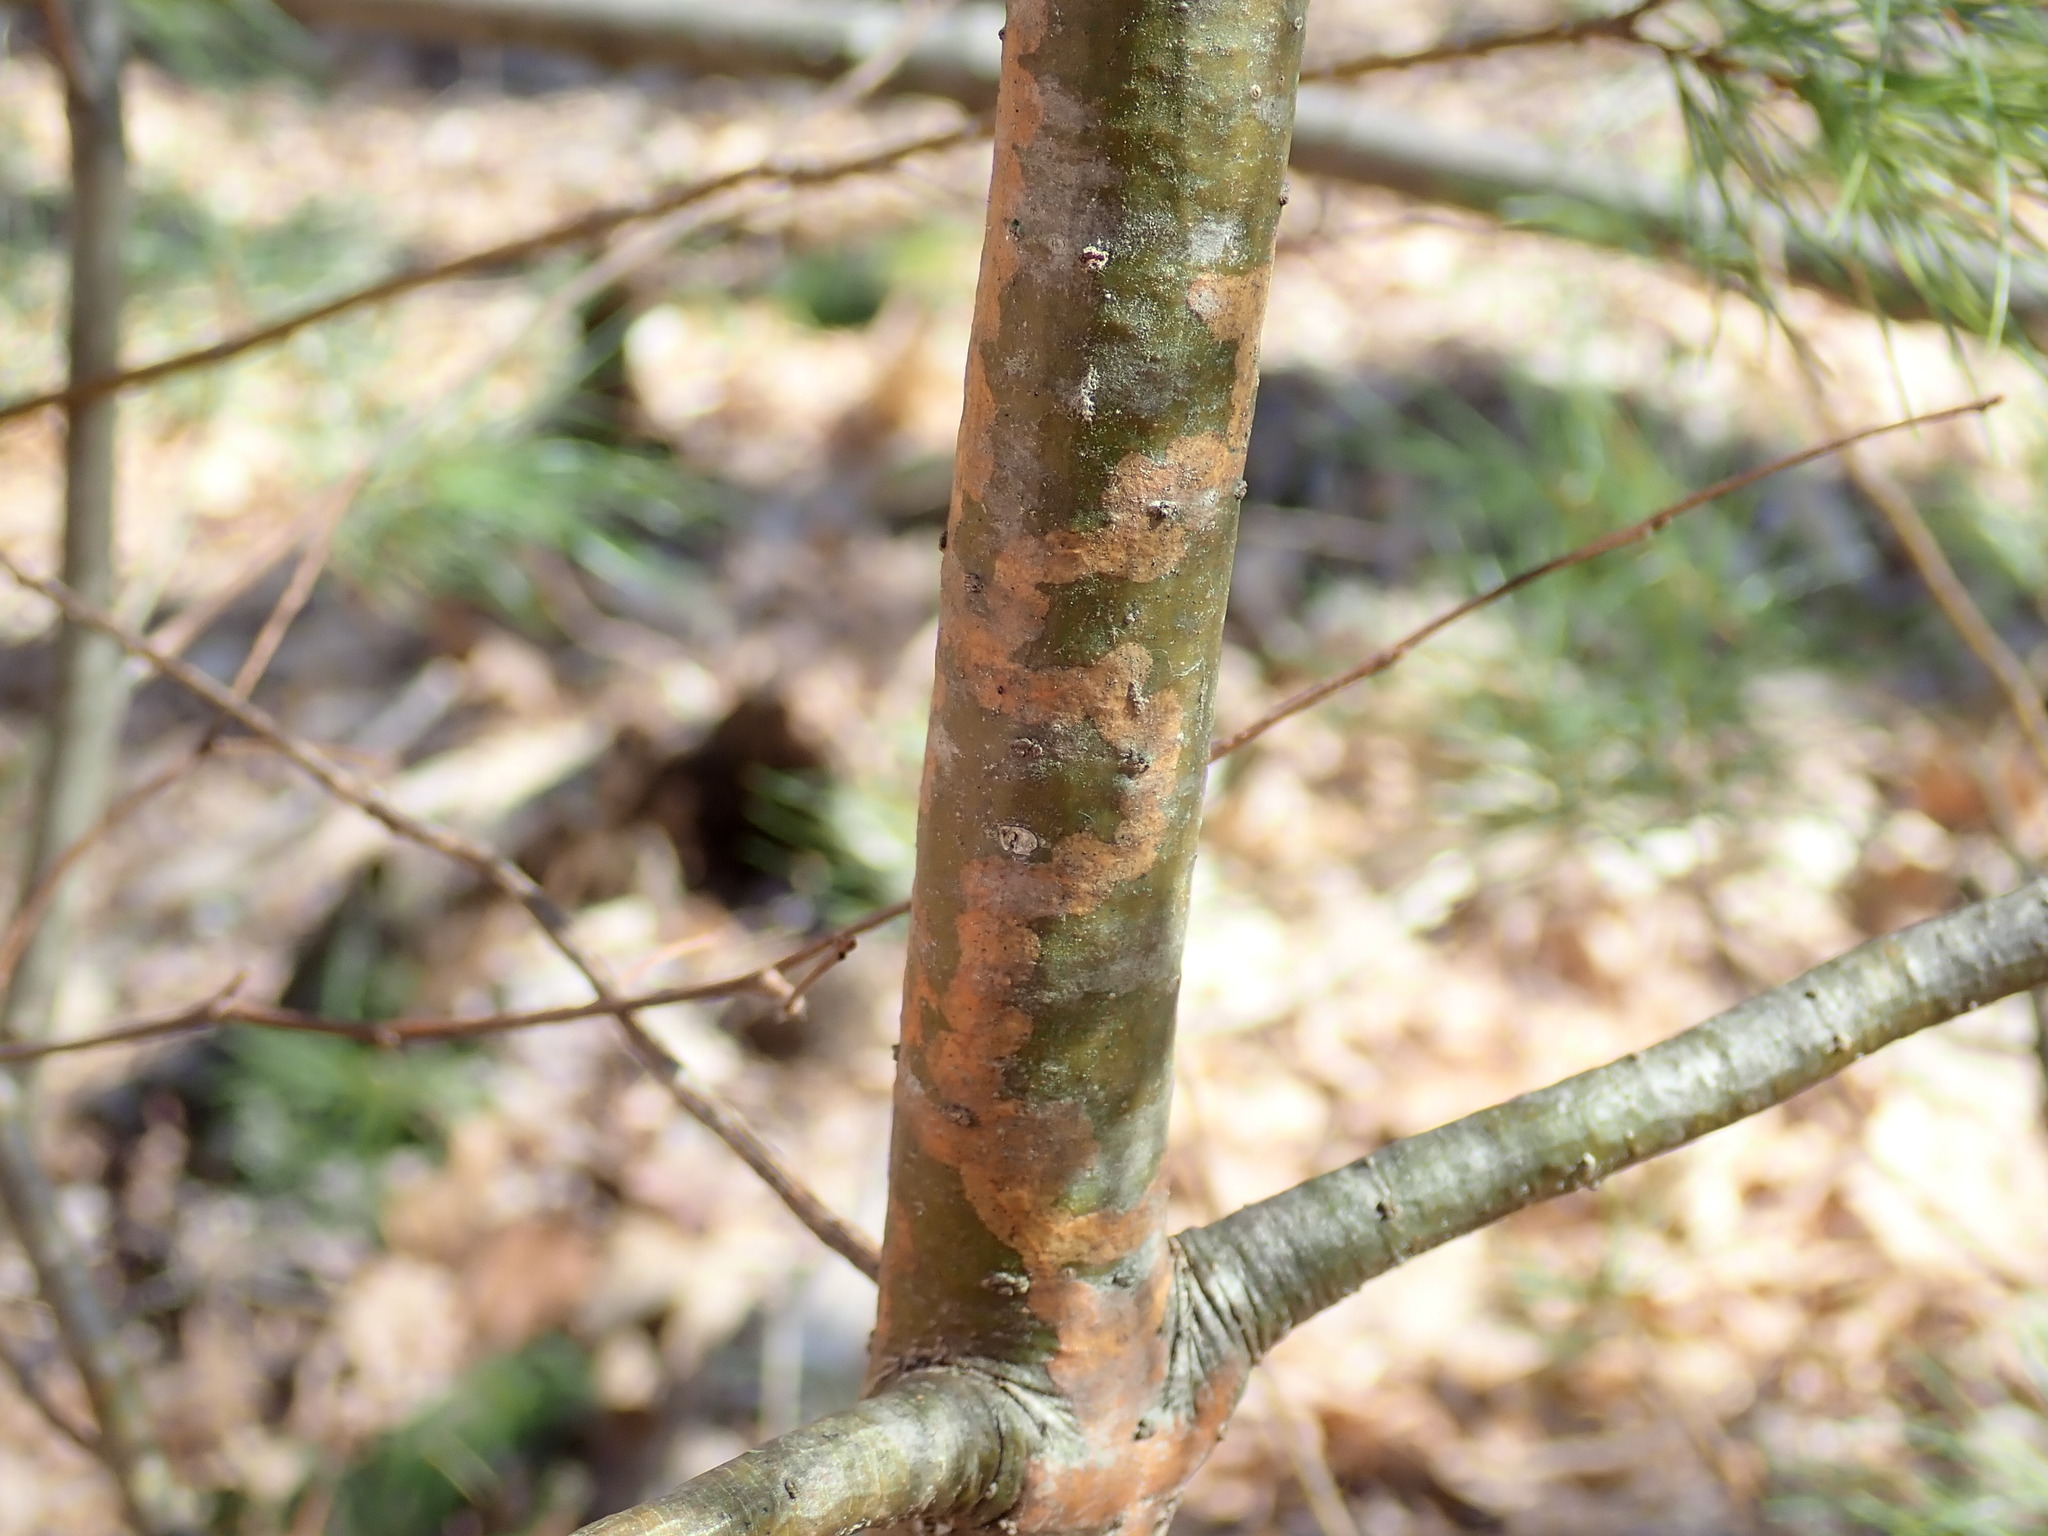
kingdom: Animalia
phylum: Arthropoda
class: Insecta
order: Lepidoptera
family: Gracillariidae
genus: Marmara
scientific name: Marmara fasciella
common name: White pine barkminer moth
